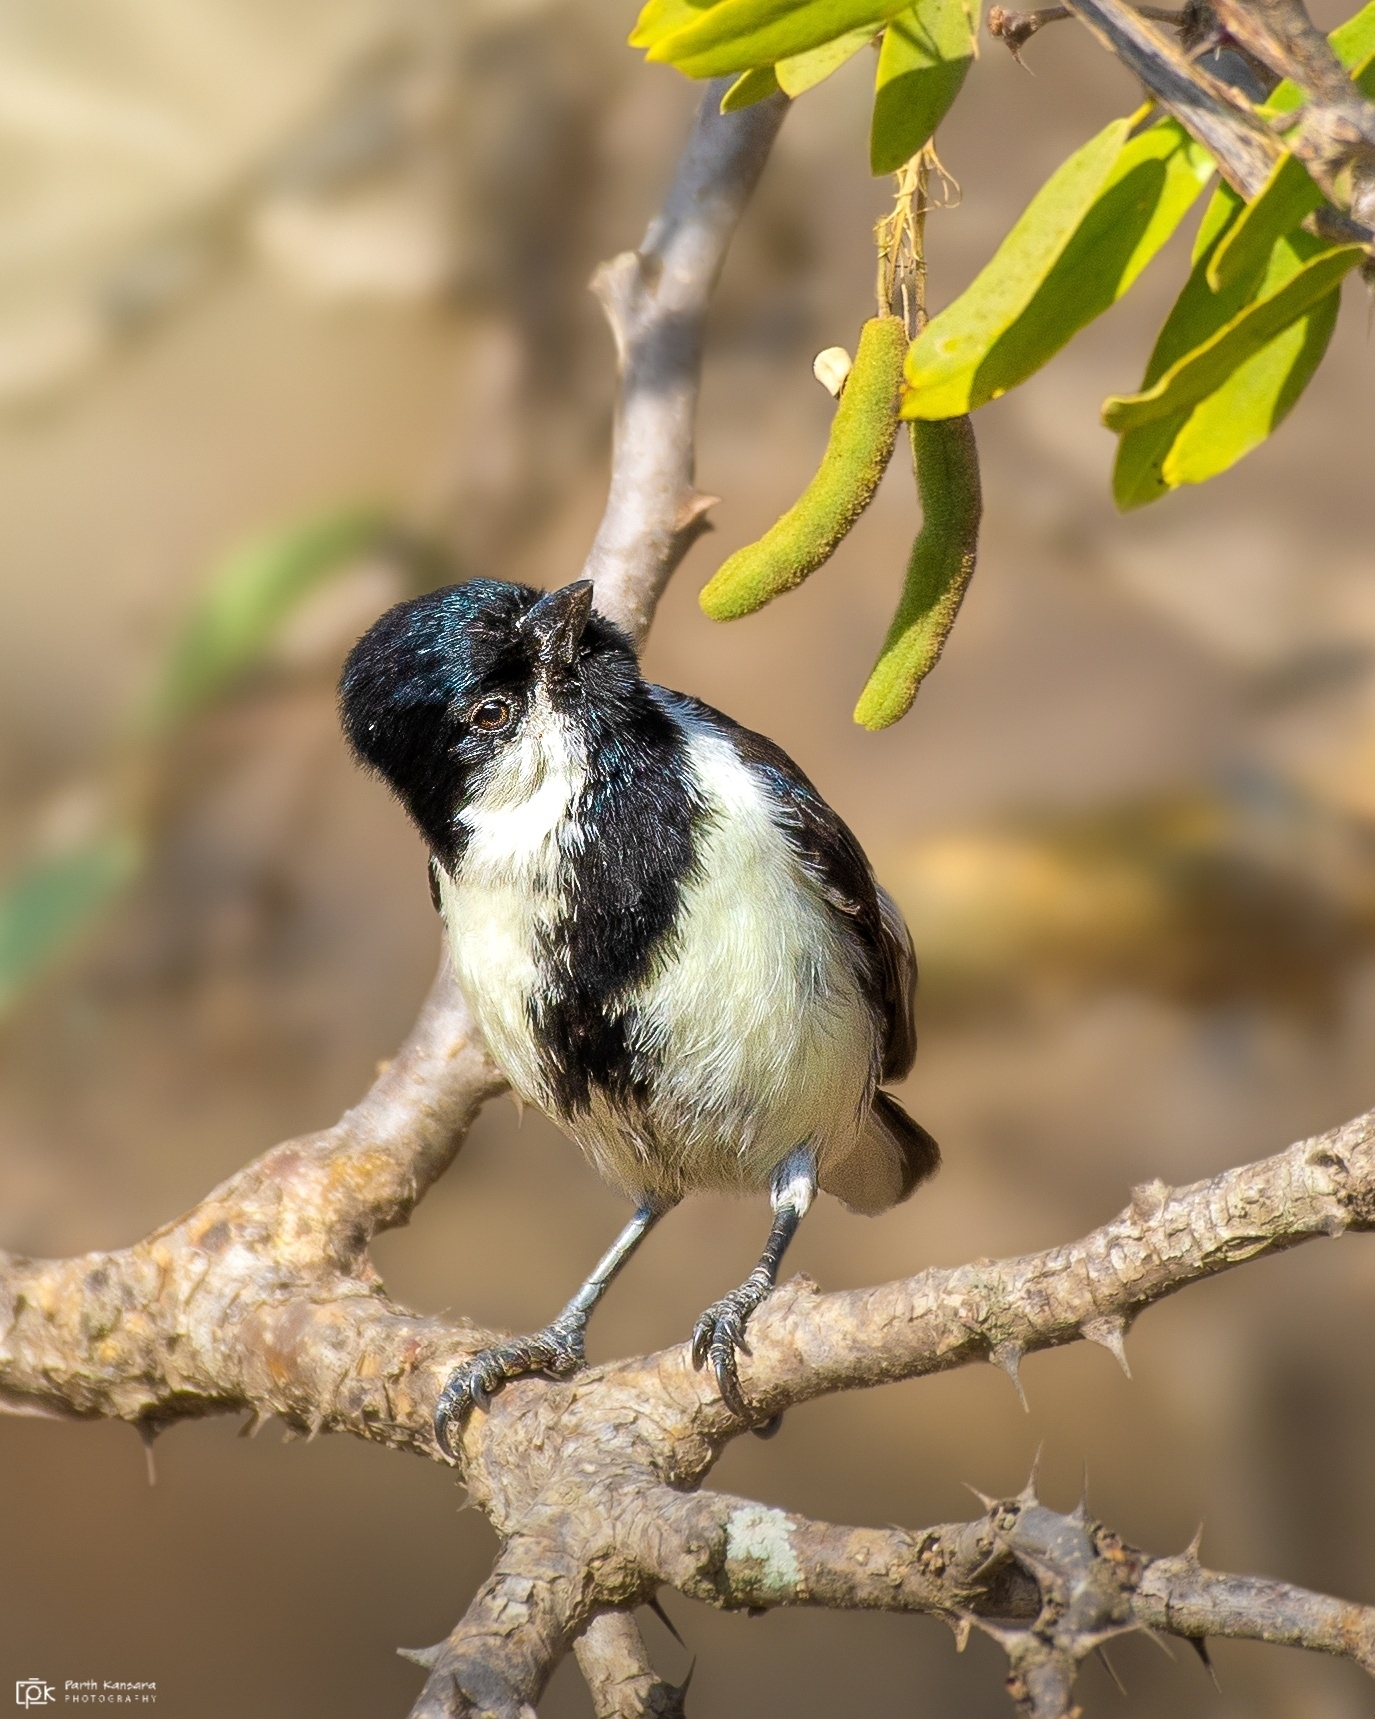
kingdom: Animalia
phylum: Chordata
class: Aves
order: Passeriformes
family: Paridae
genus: Parus
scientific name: Parus nuchalis
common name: White-naped tit
